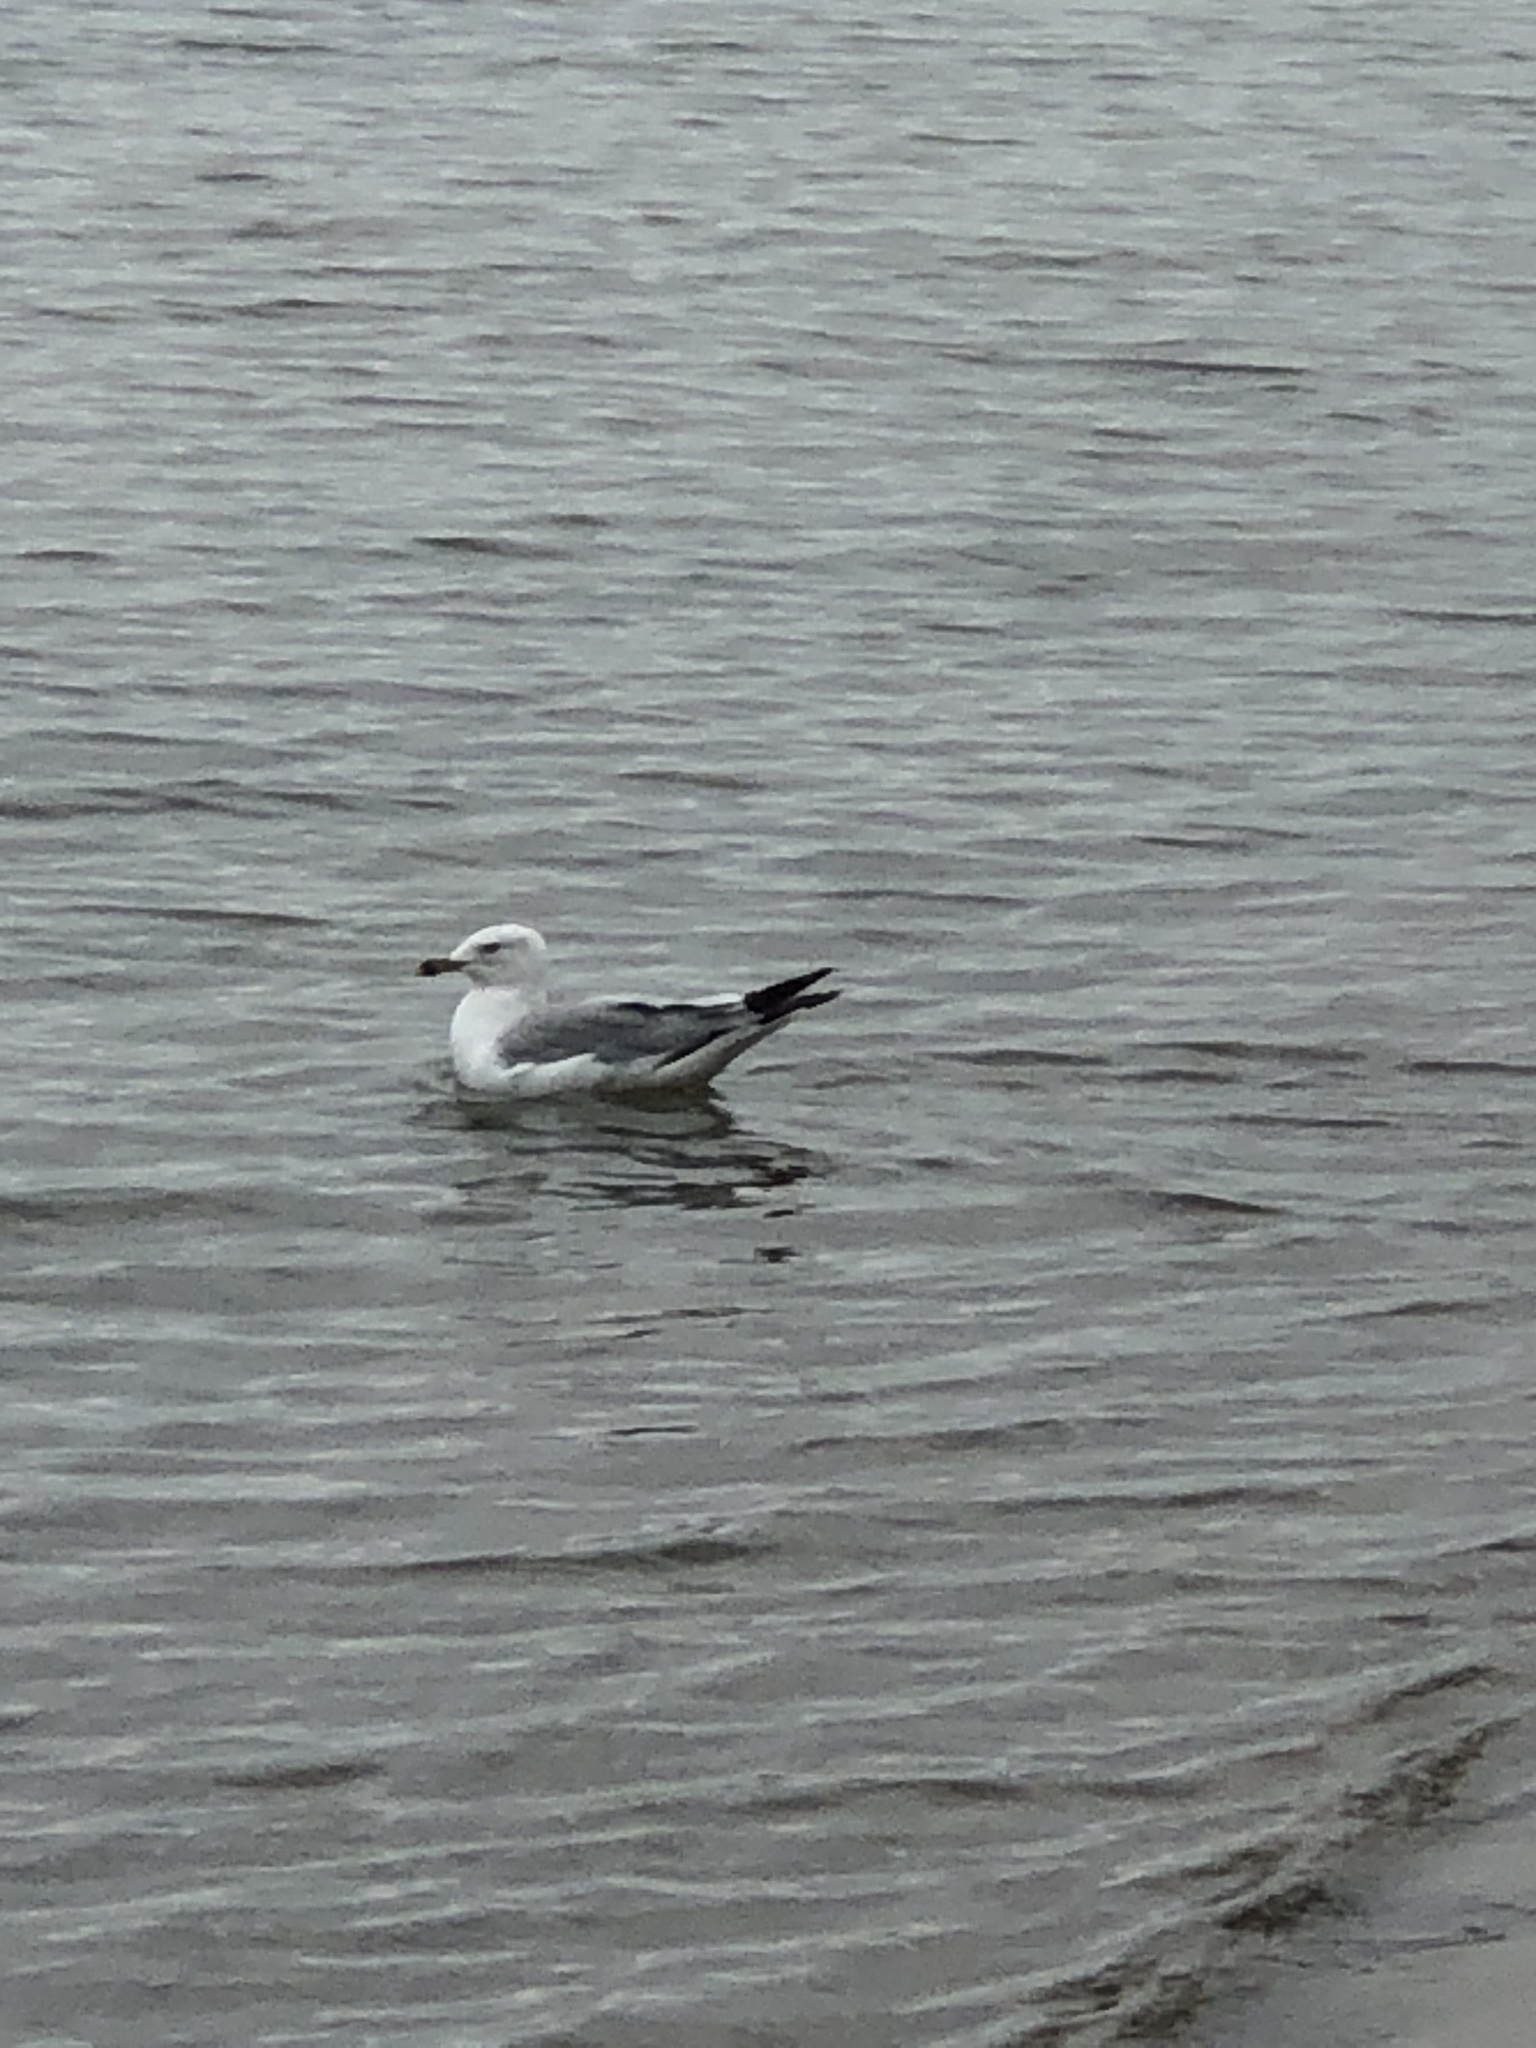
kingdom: Animalia
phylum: Chordata
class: Aves
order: Charadriiformes
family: Laridae
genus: Larus
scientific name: Larus delawarensis
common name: Ring-billed gull
